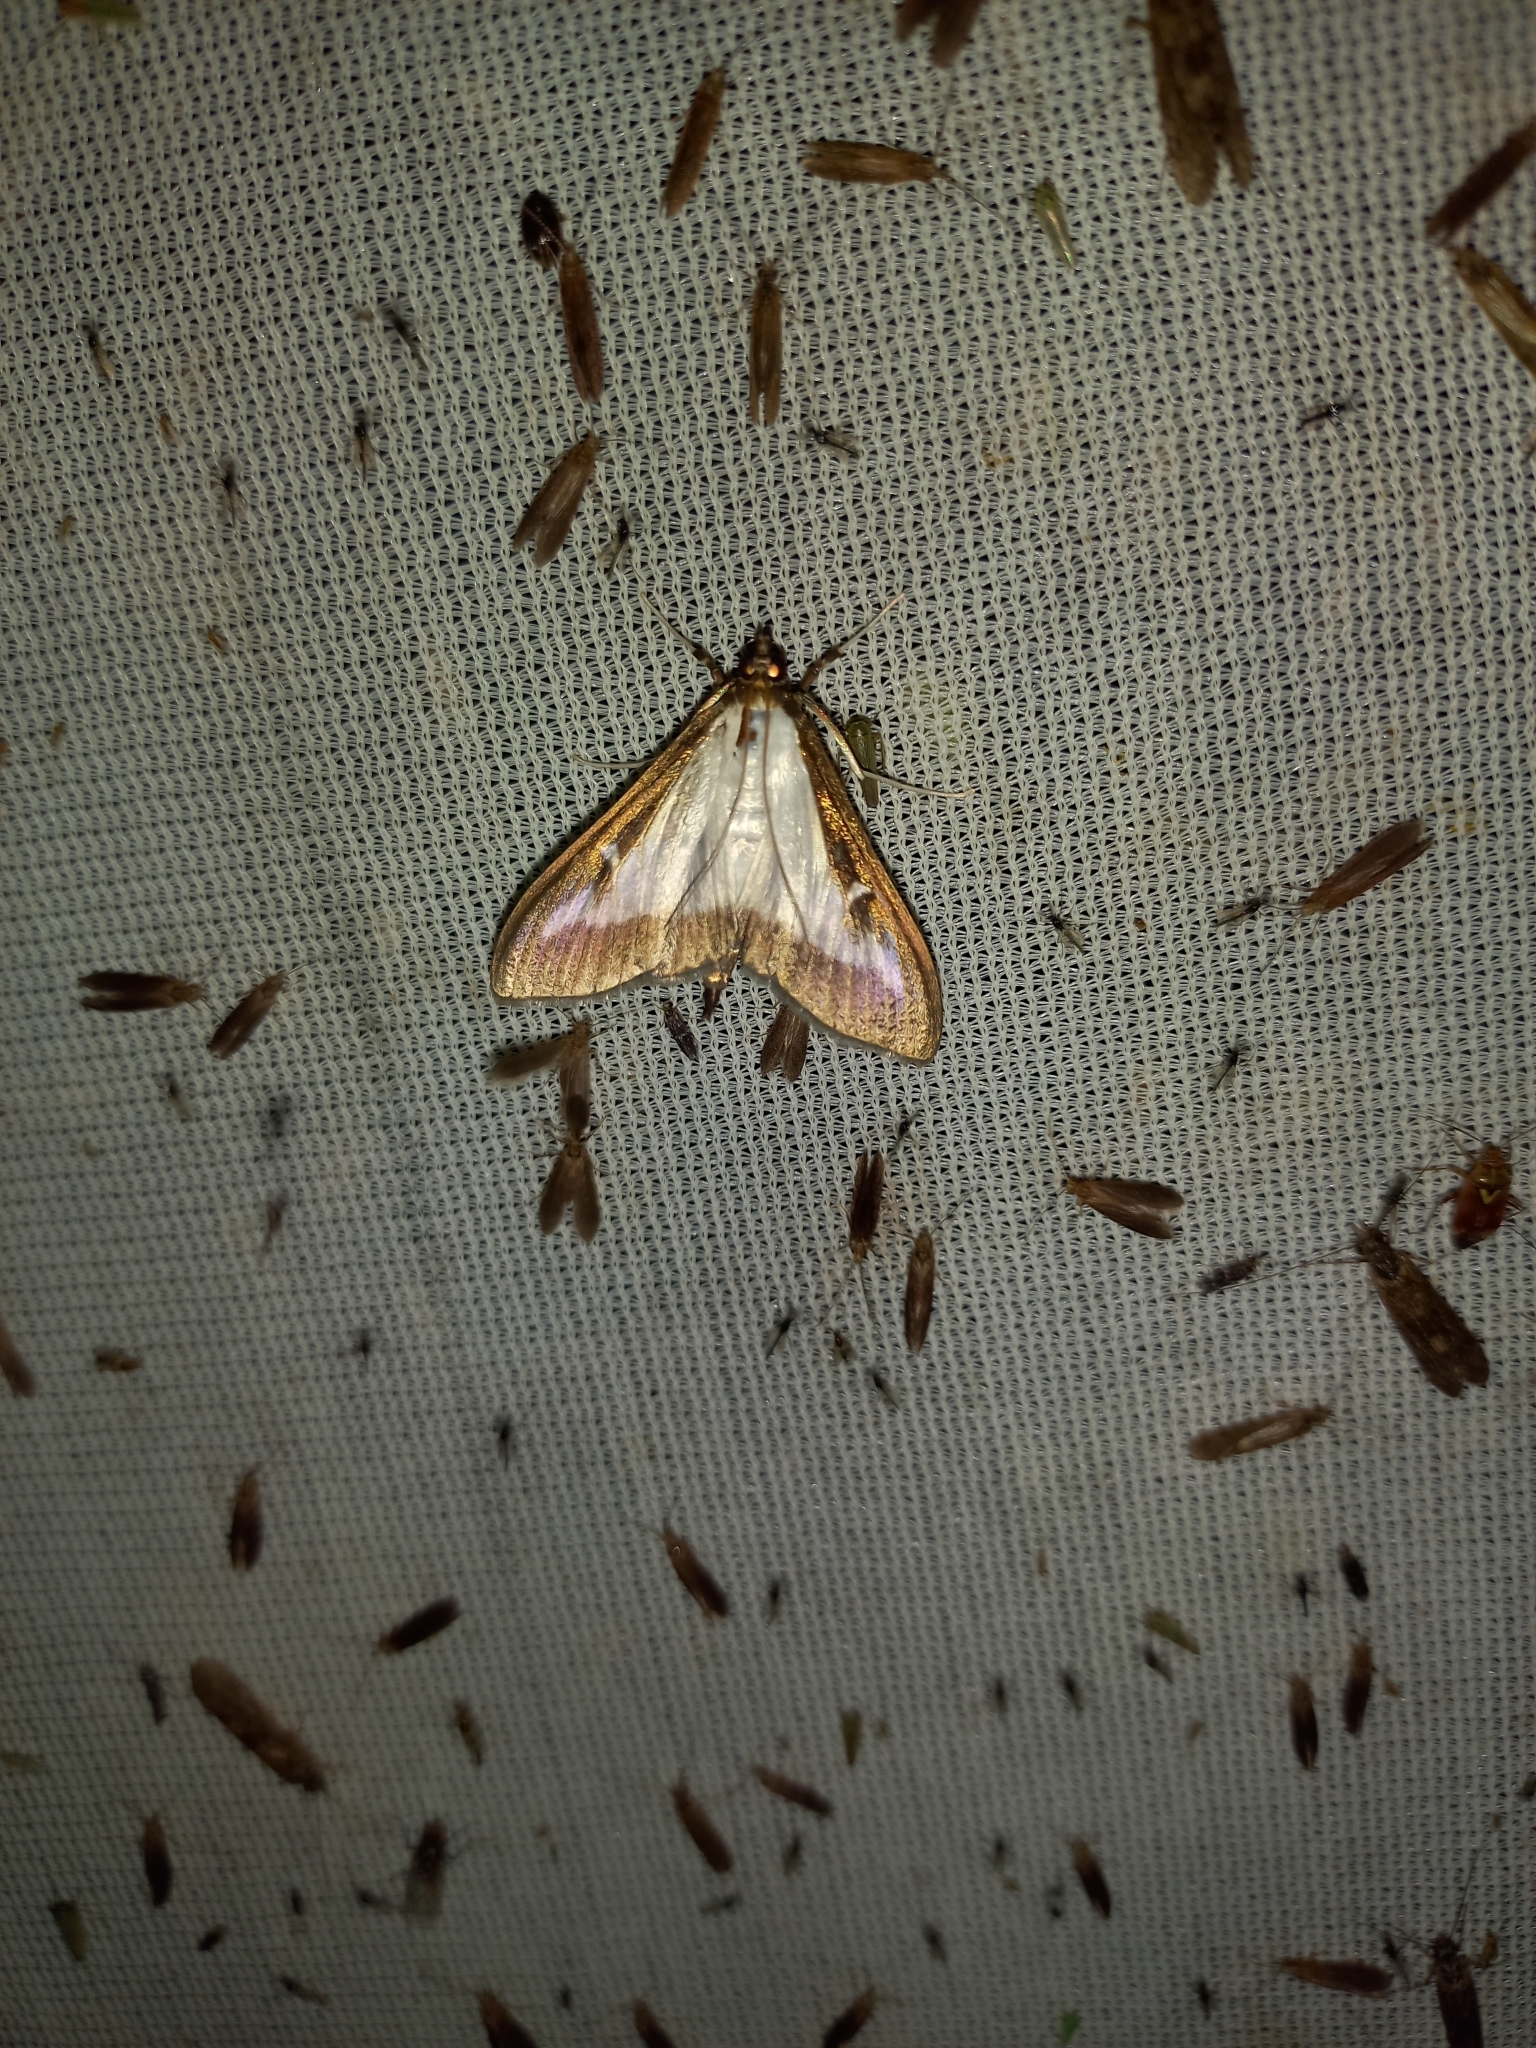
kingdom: Animalia
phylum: Arthropoda
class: Insecta
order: Lepidoptera
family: Crambidae
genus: Cydalima
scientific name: Cydalima perspectalis
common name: Box tree moth
